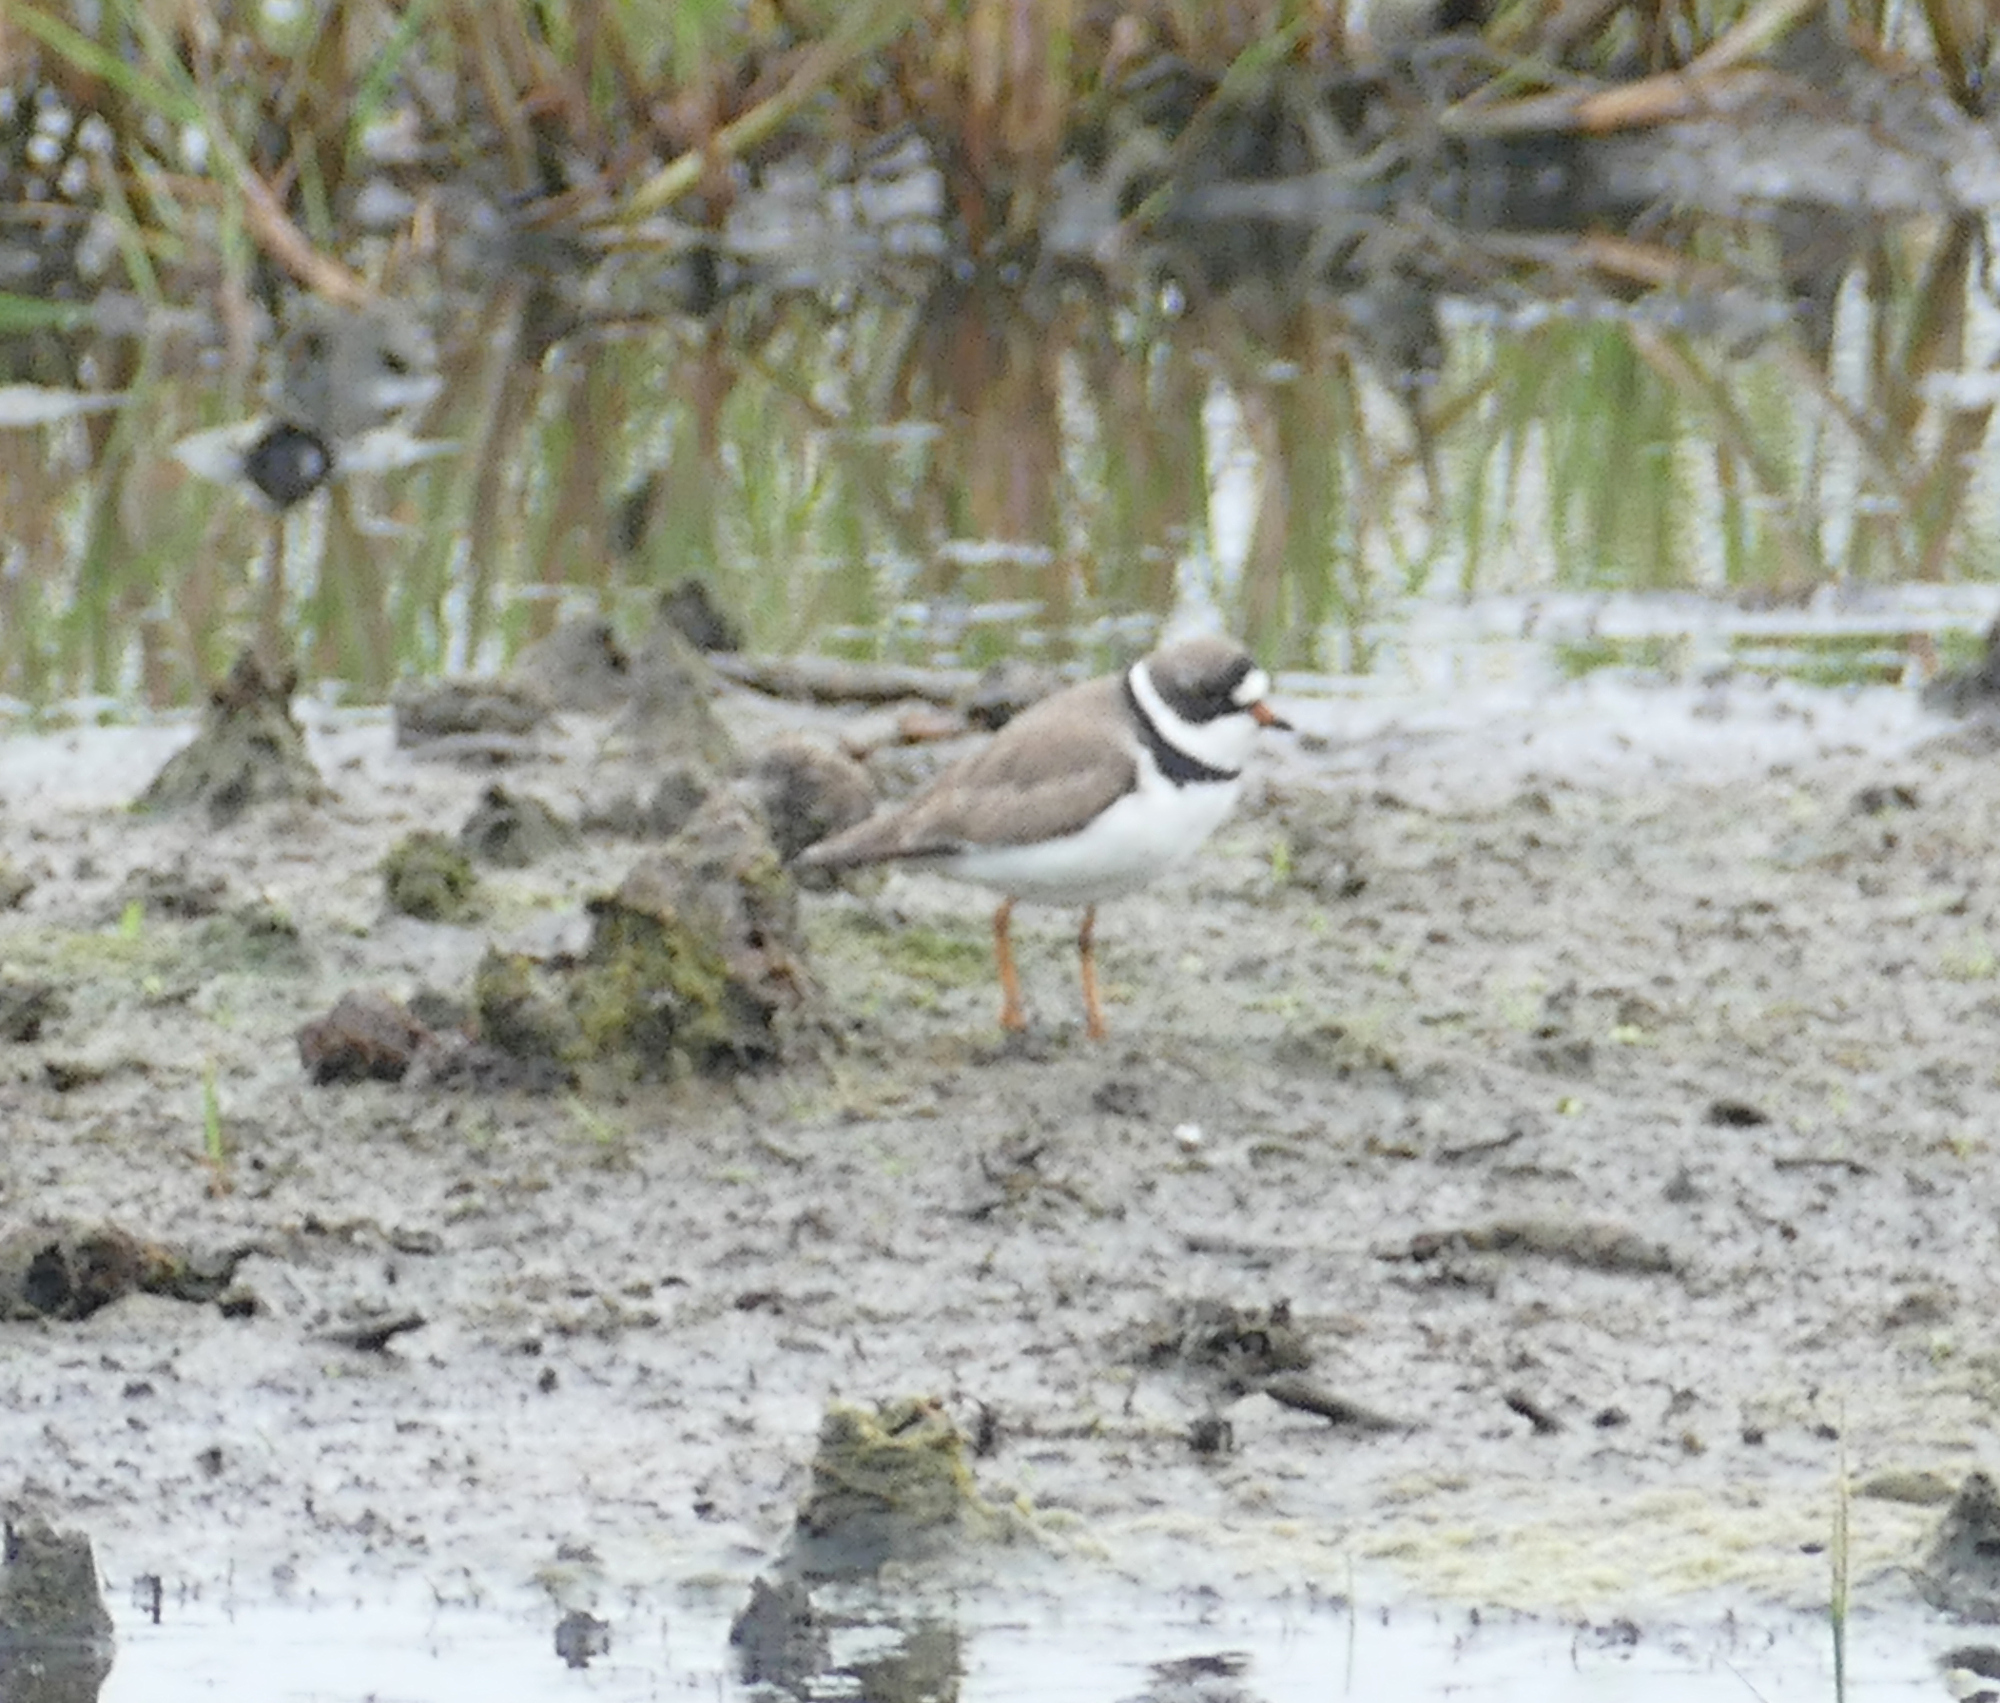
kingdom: Animalia
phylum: Chordata
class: Aves
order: Charadriiformes
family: Charadriidae
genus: Charadrius
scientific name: Charadrius semipalmatus
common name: Semipalmated plover
